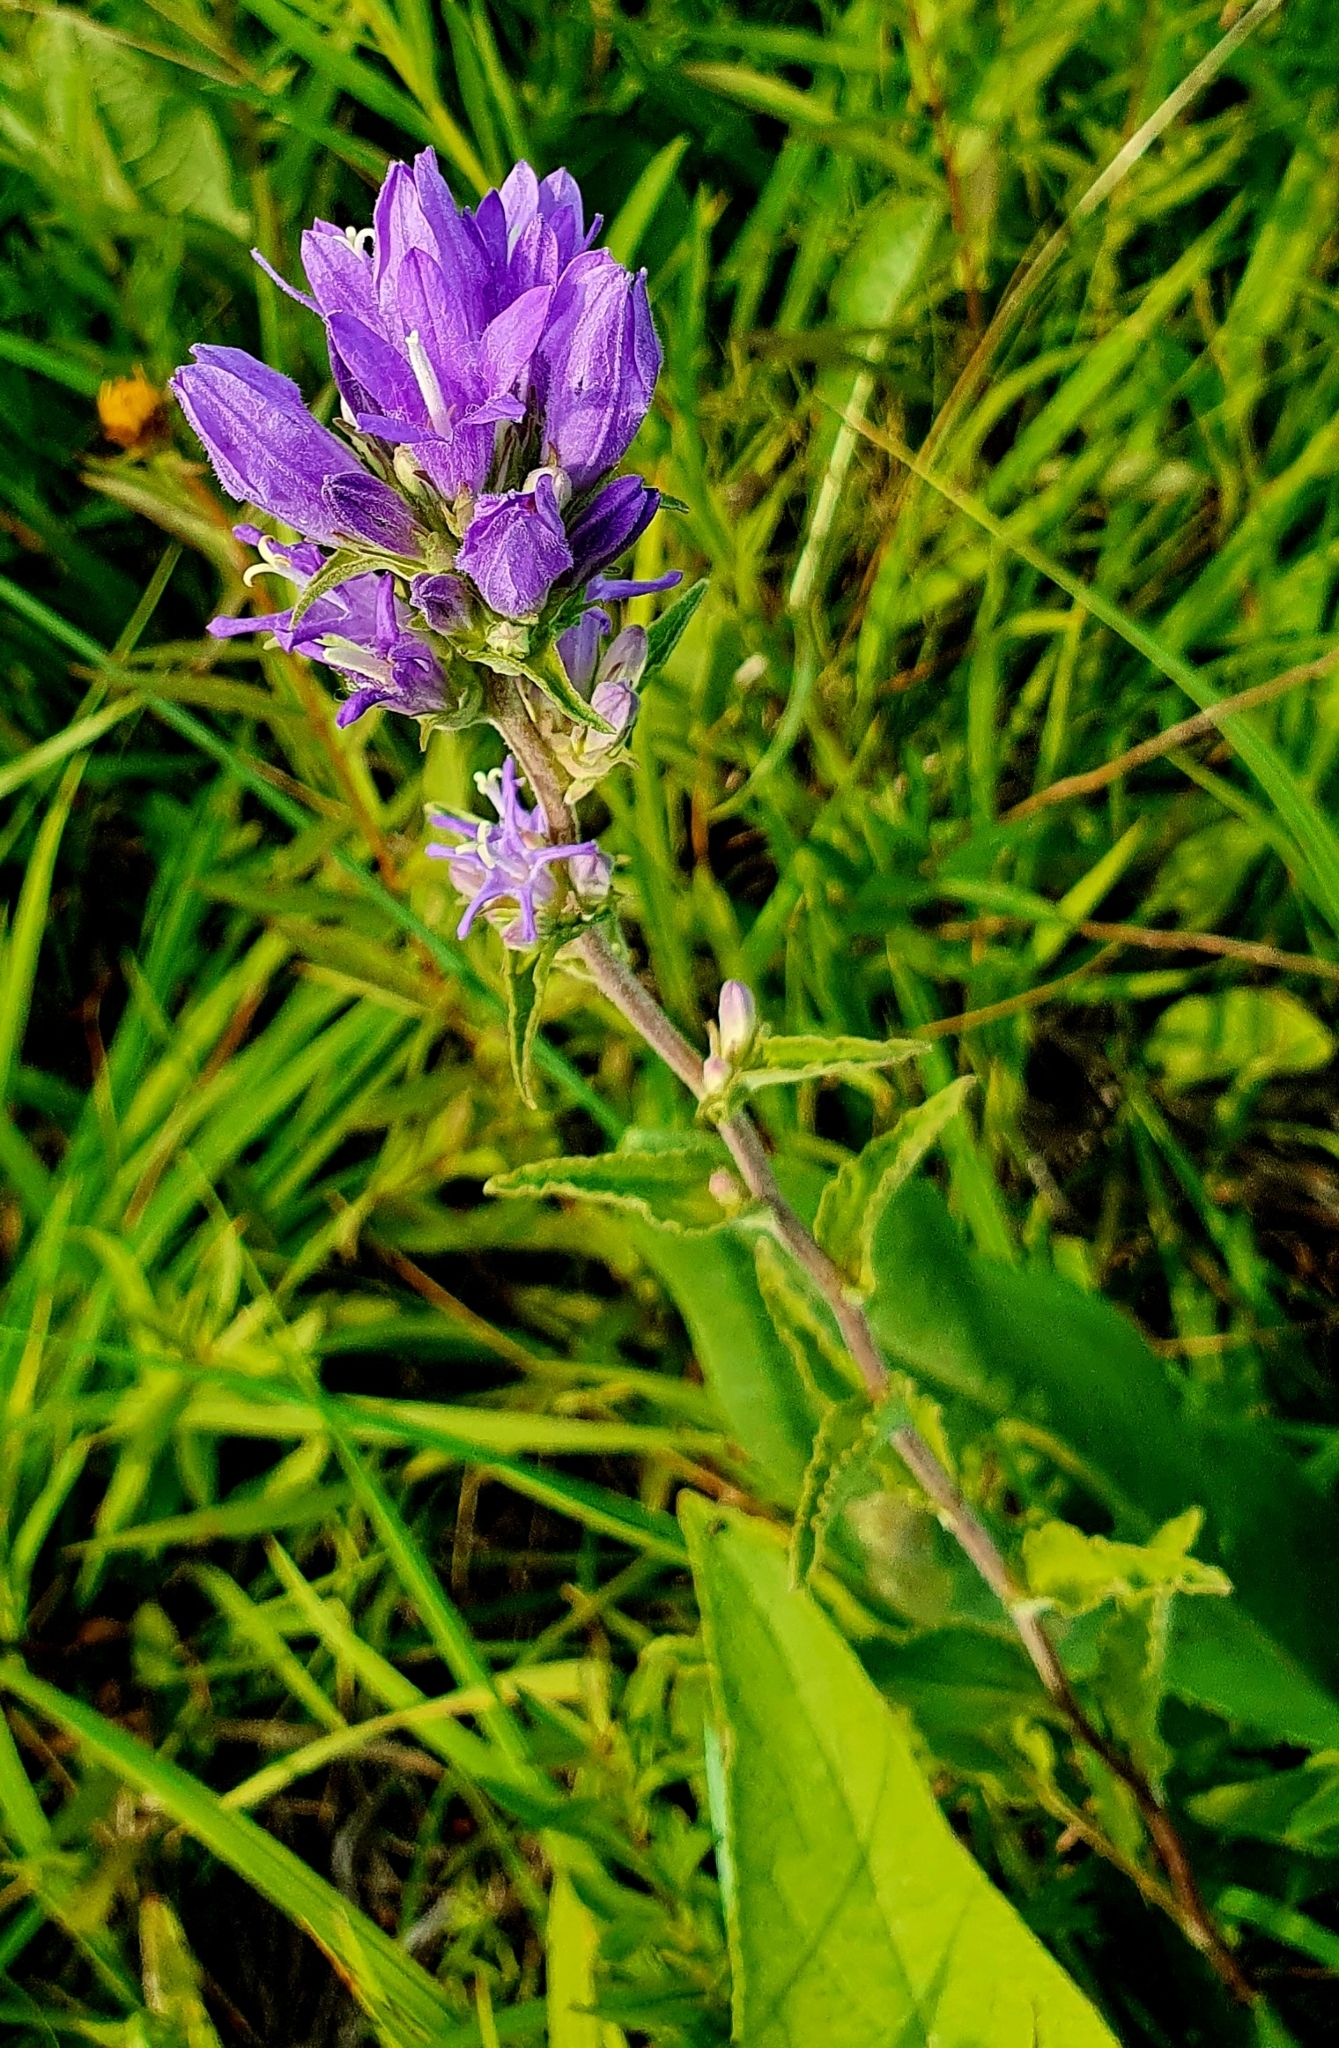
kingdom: Plantae
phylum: Tracheophyta
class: Magnoliopsida
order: Asterales
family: Campanulaceae
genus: Campanula
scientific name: Campanula glomerata
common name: Clustered bellflower
